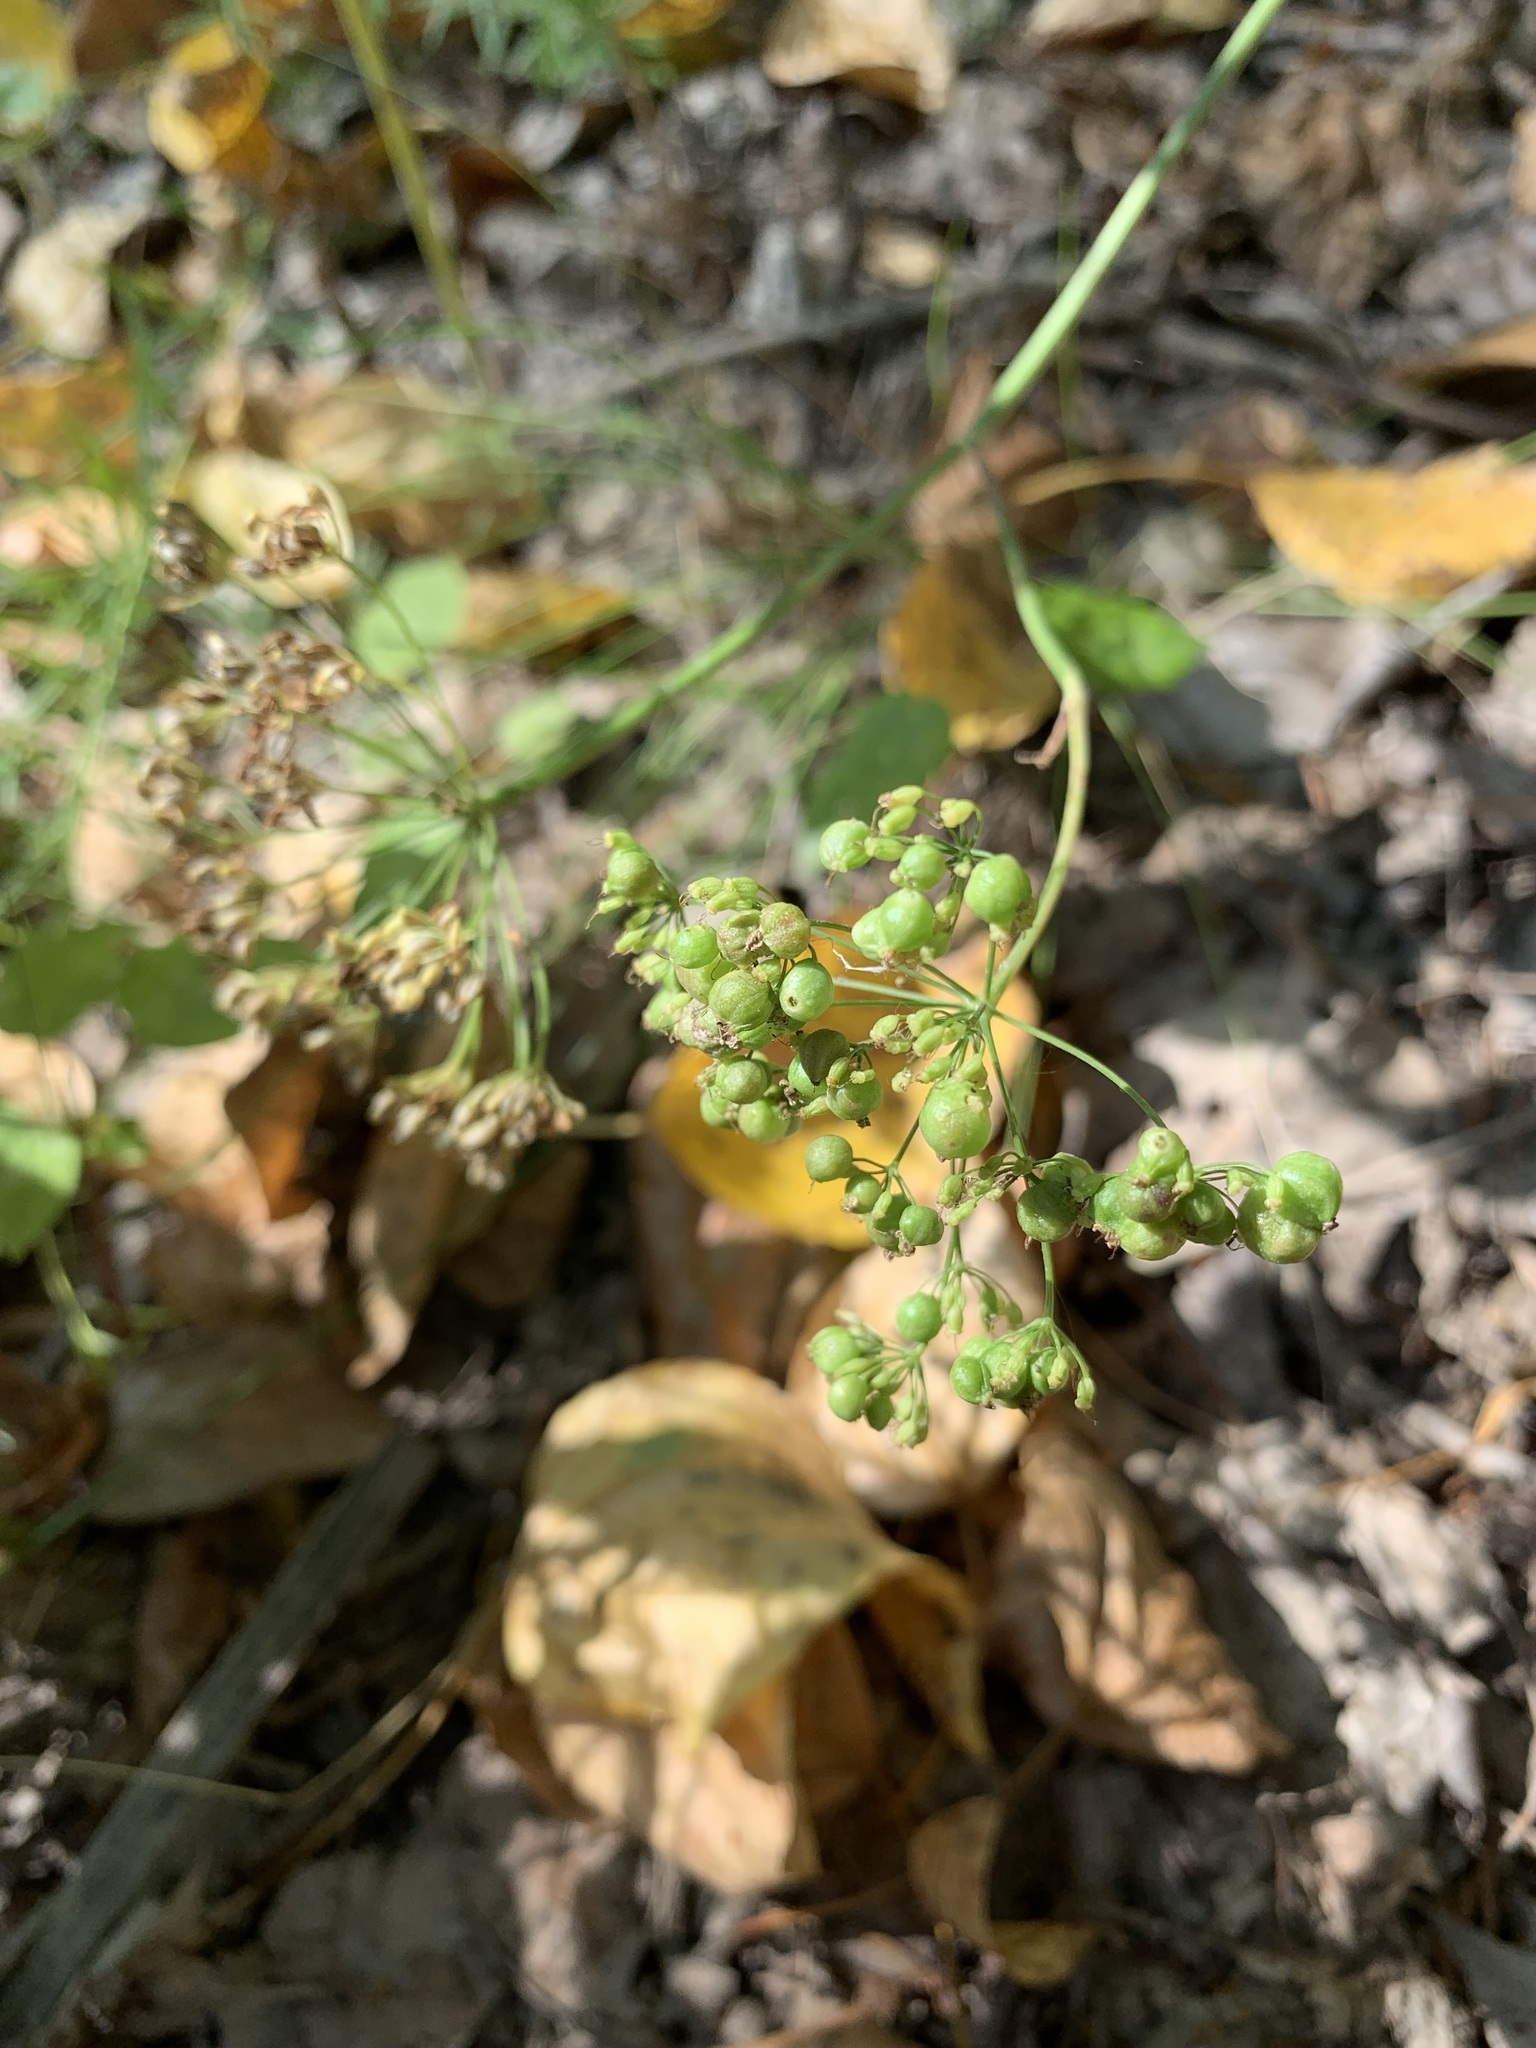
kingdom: Plantae
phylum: Tracheophyta
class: Magnoliopsida
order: Apiales
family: Apiaceae
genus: Pimpinella
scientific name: Pimpinella saxifraga
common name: Burnet-saxifrage
